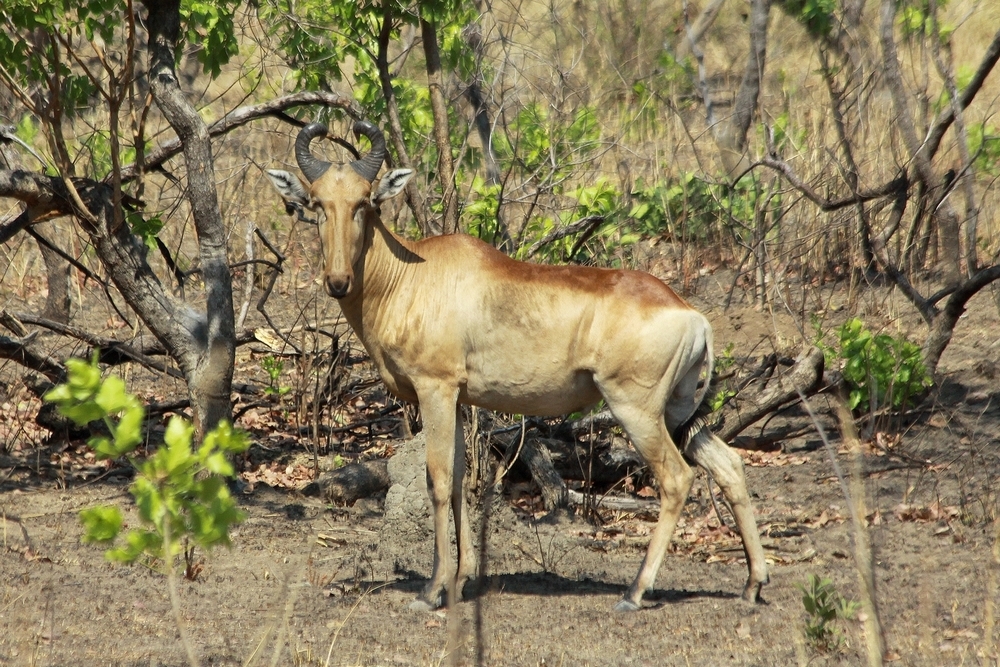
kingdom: Animalia
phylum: Chordata
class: Mammalia
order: Artiodactyla
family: Bovidae
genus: Alcelaphus
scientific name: Alcelaphus buselaphus
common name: Hartebeest
